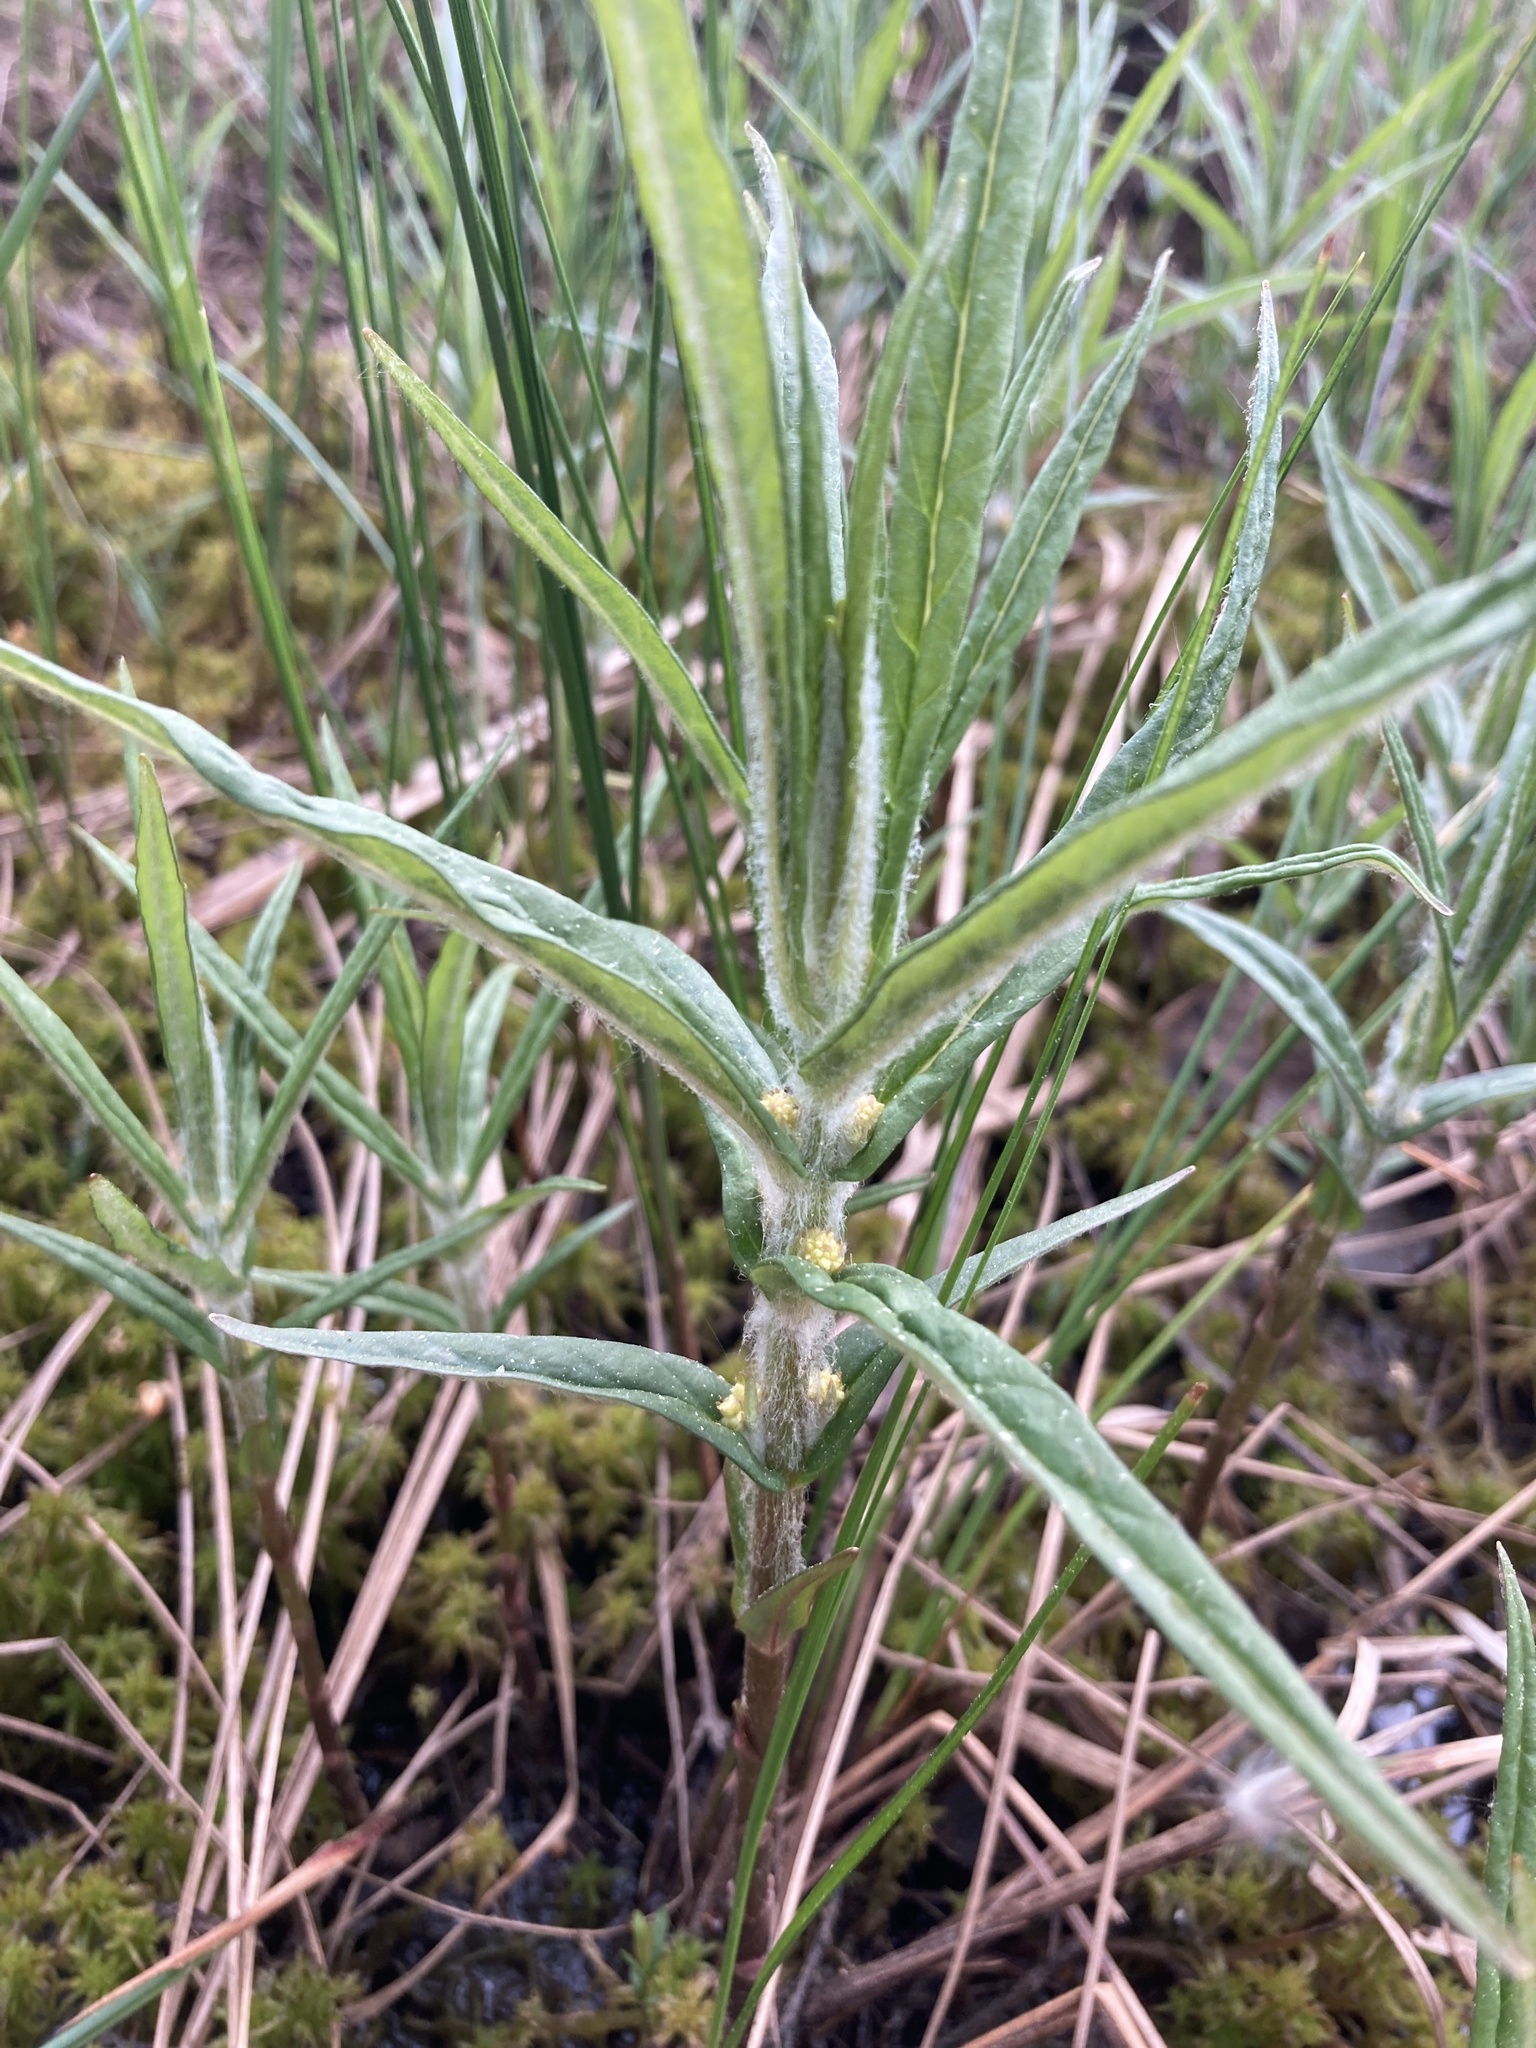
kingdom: Plantae
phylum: Tracheophyta
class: Magnoliopsida
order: Ericales
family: Primulaceae
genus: Lysimachia
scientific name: Lysimachia thyrsiflora
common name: Tufted loosestrife
